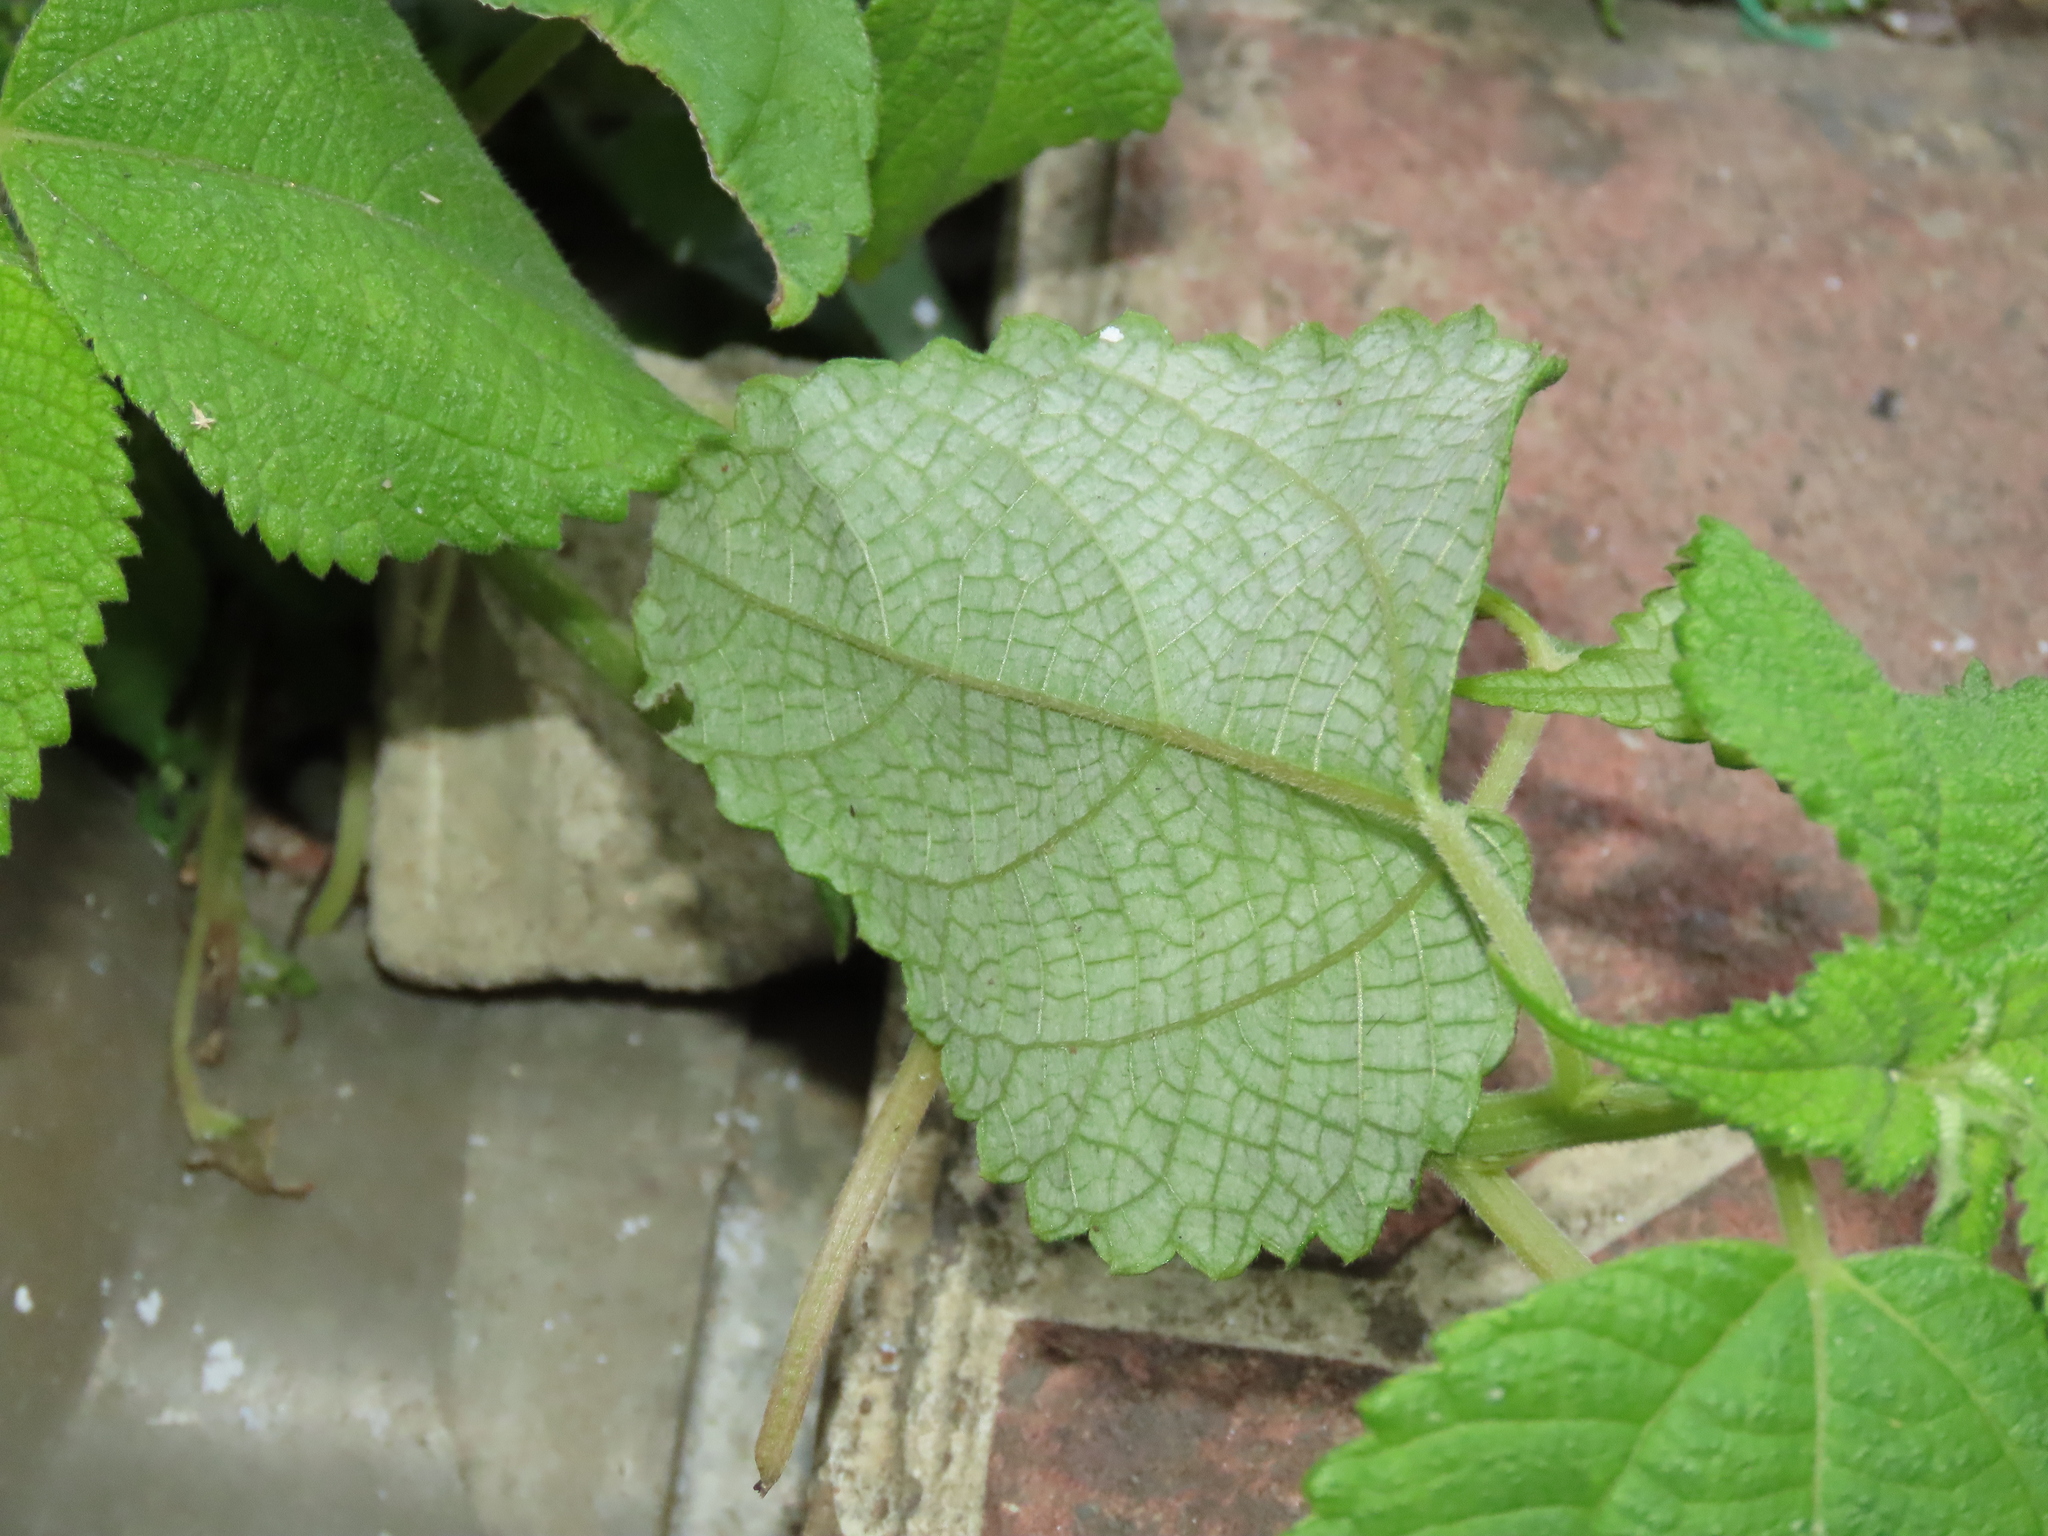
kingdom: Plantae
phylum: Tracheophyta
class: Magnoliopsida
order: Rosales
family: Urticaceae
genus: Boehmeria
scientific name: Boehmeria nivea
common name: Ramie chinese grass
